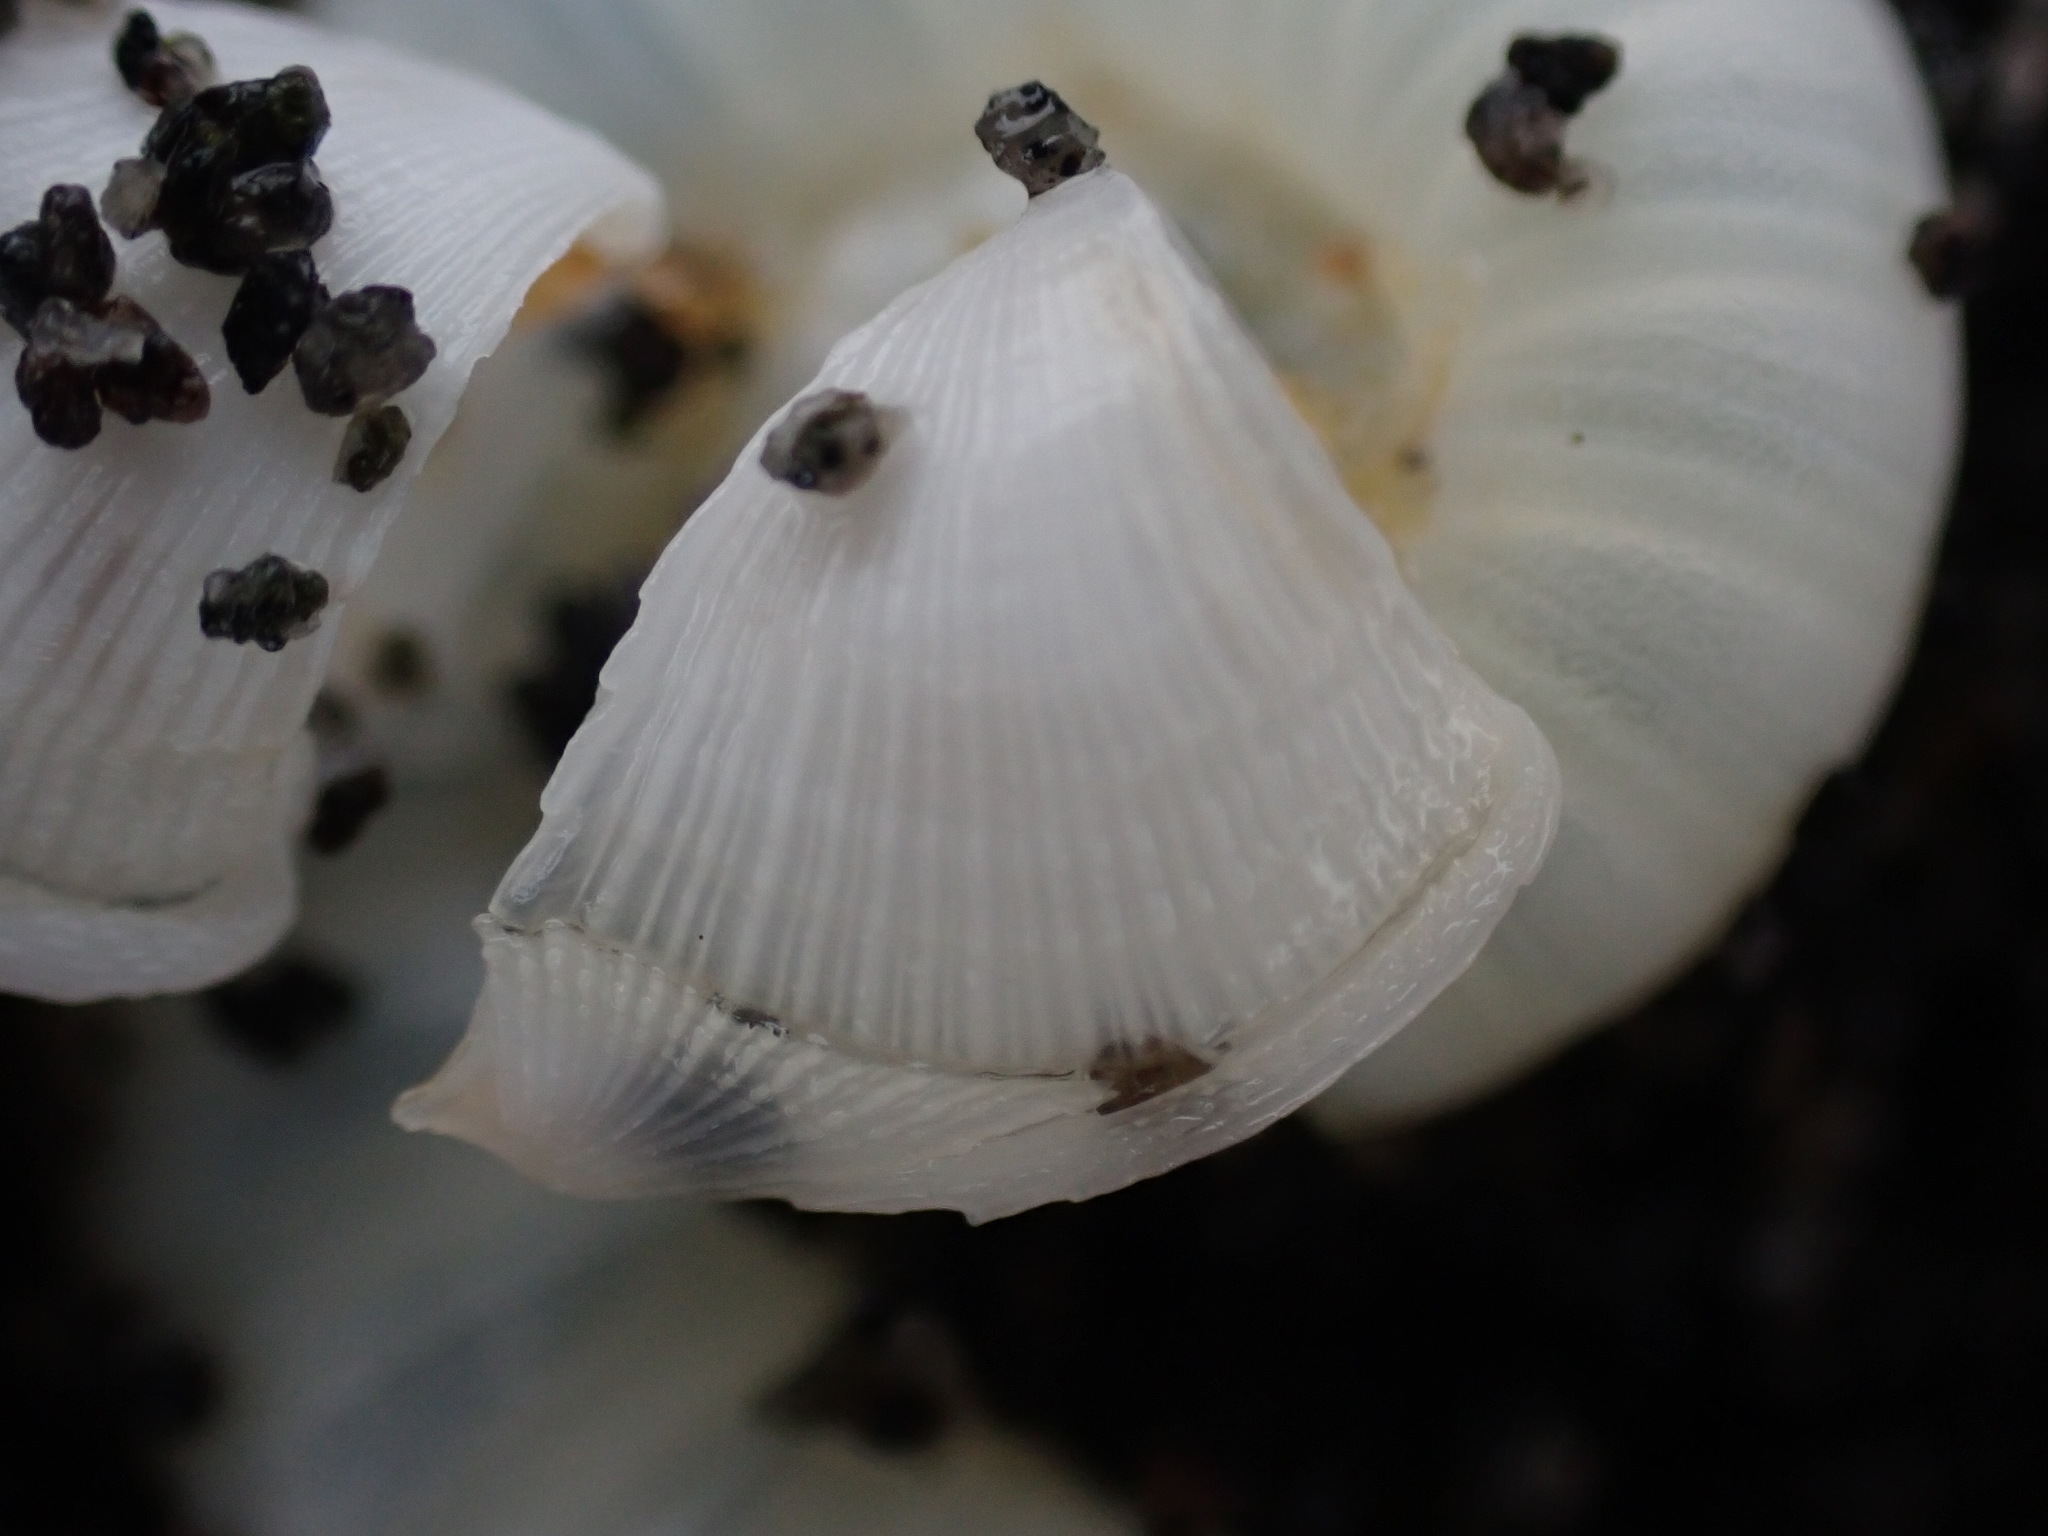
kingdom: Animalia
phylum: Arthropoda
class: Maxillopoda
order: Pedunculata
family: Lepadidae
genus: Lepas
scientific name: Lepas pectinata
